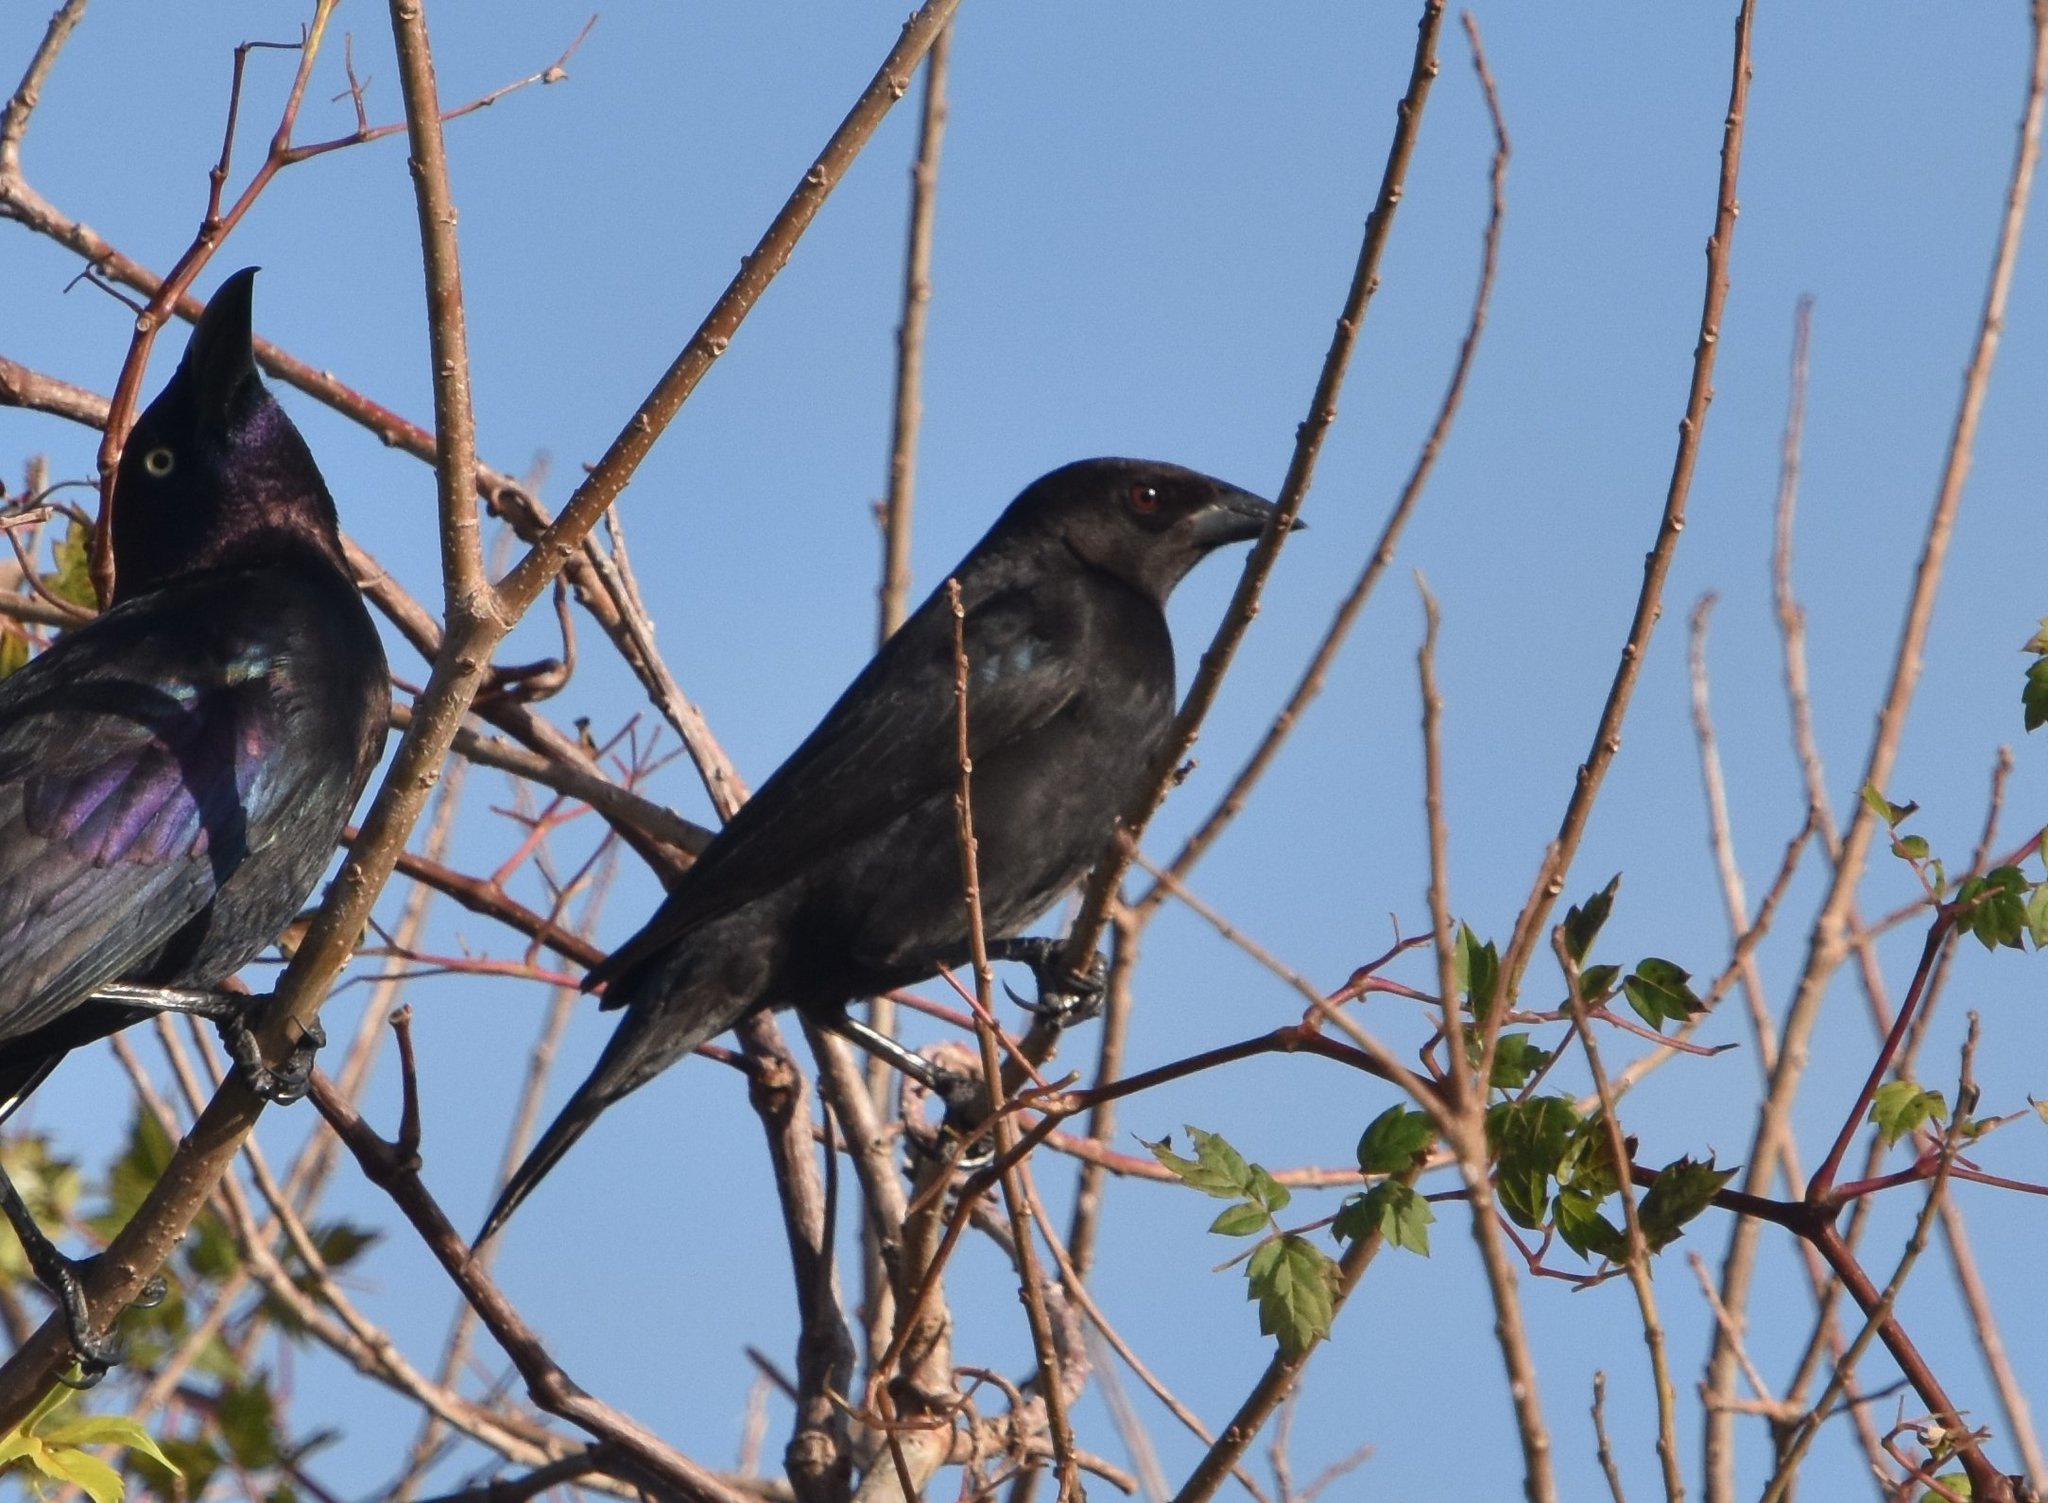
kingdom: Animalia
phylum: Chordata
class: Aves
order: Passeriformes
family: Icteridae
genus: Molothrus
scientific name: Molothrus aeneus
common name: Bronzed cowbird
